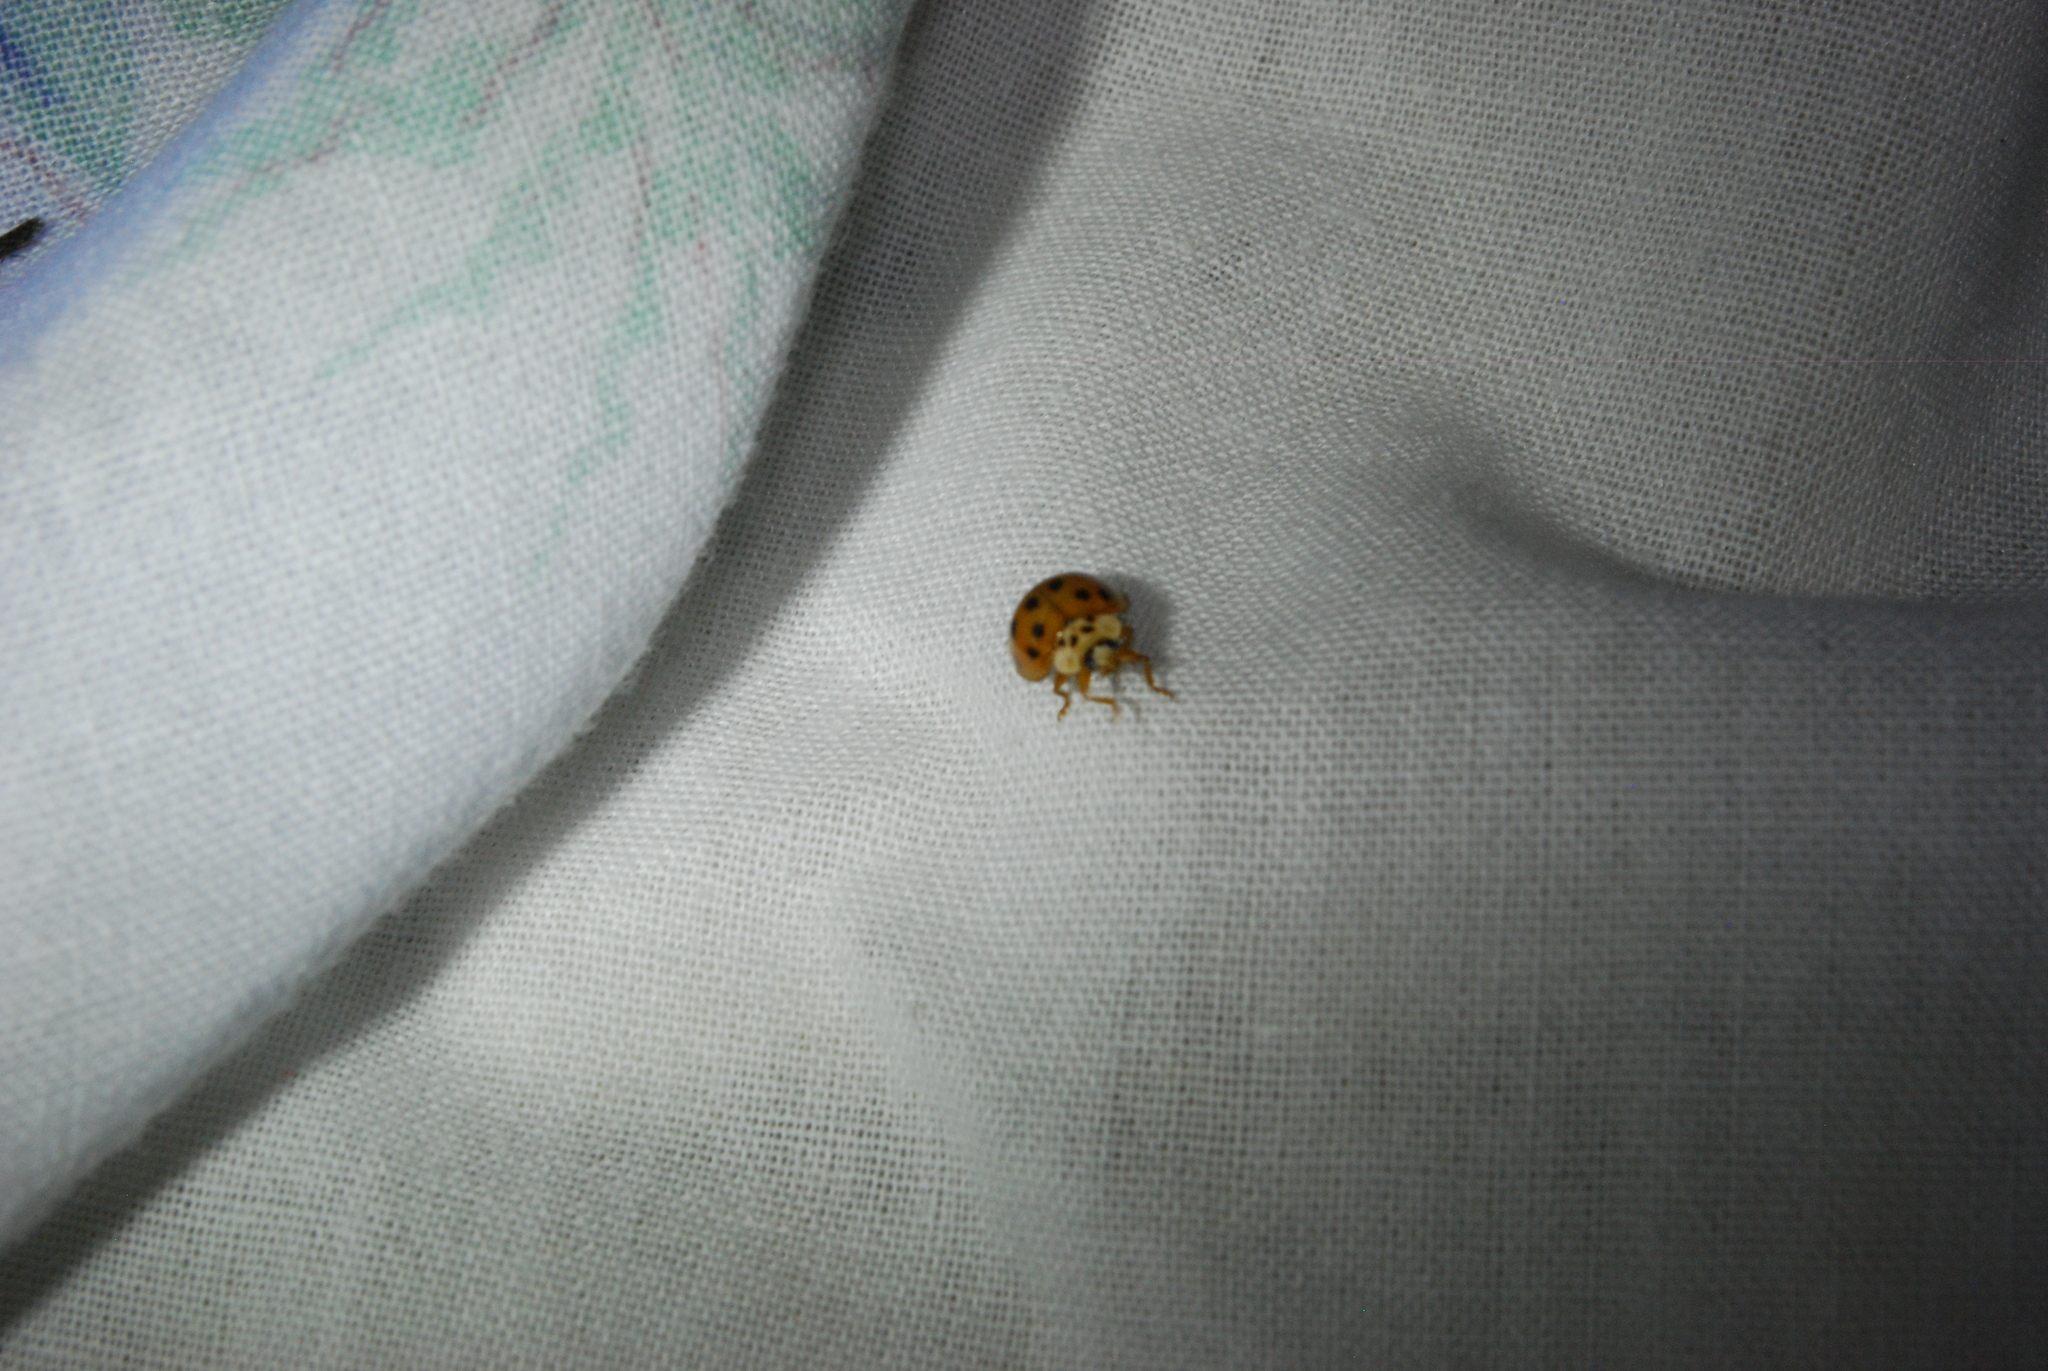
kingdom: Animalia
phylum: Arthropoda
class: Insecta
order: Coleoptera
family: Coccinellidae
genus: Harmonia
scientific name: Harmonia axyridis
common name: Harlequin ladybird
